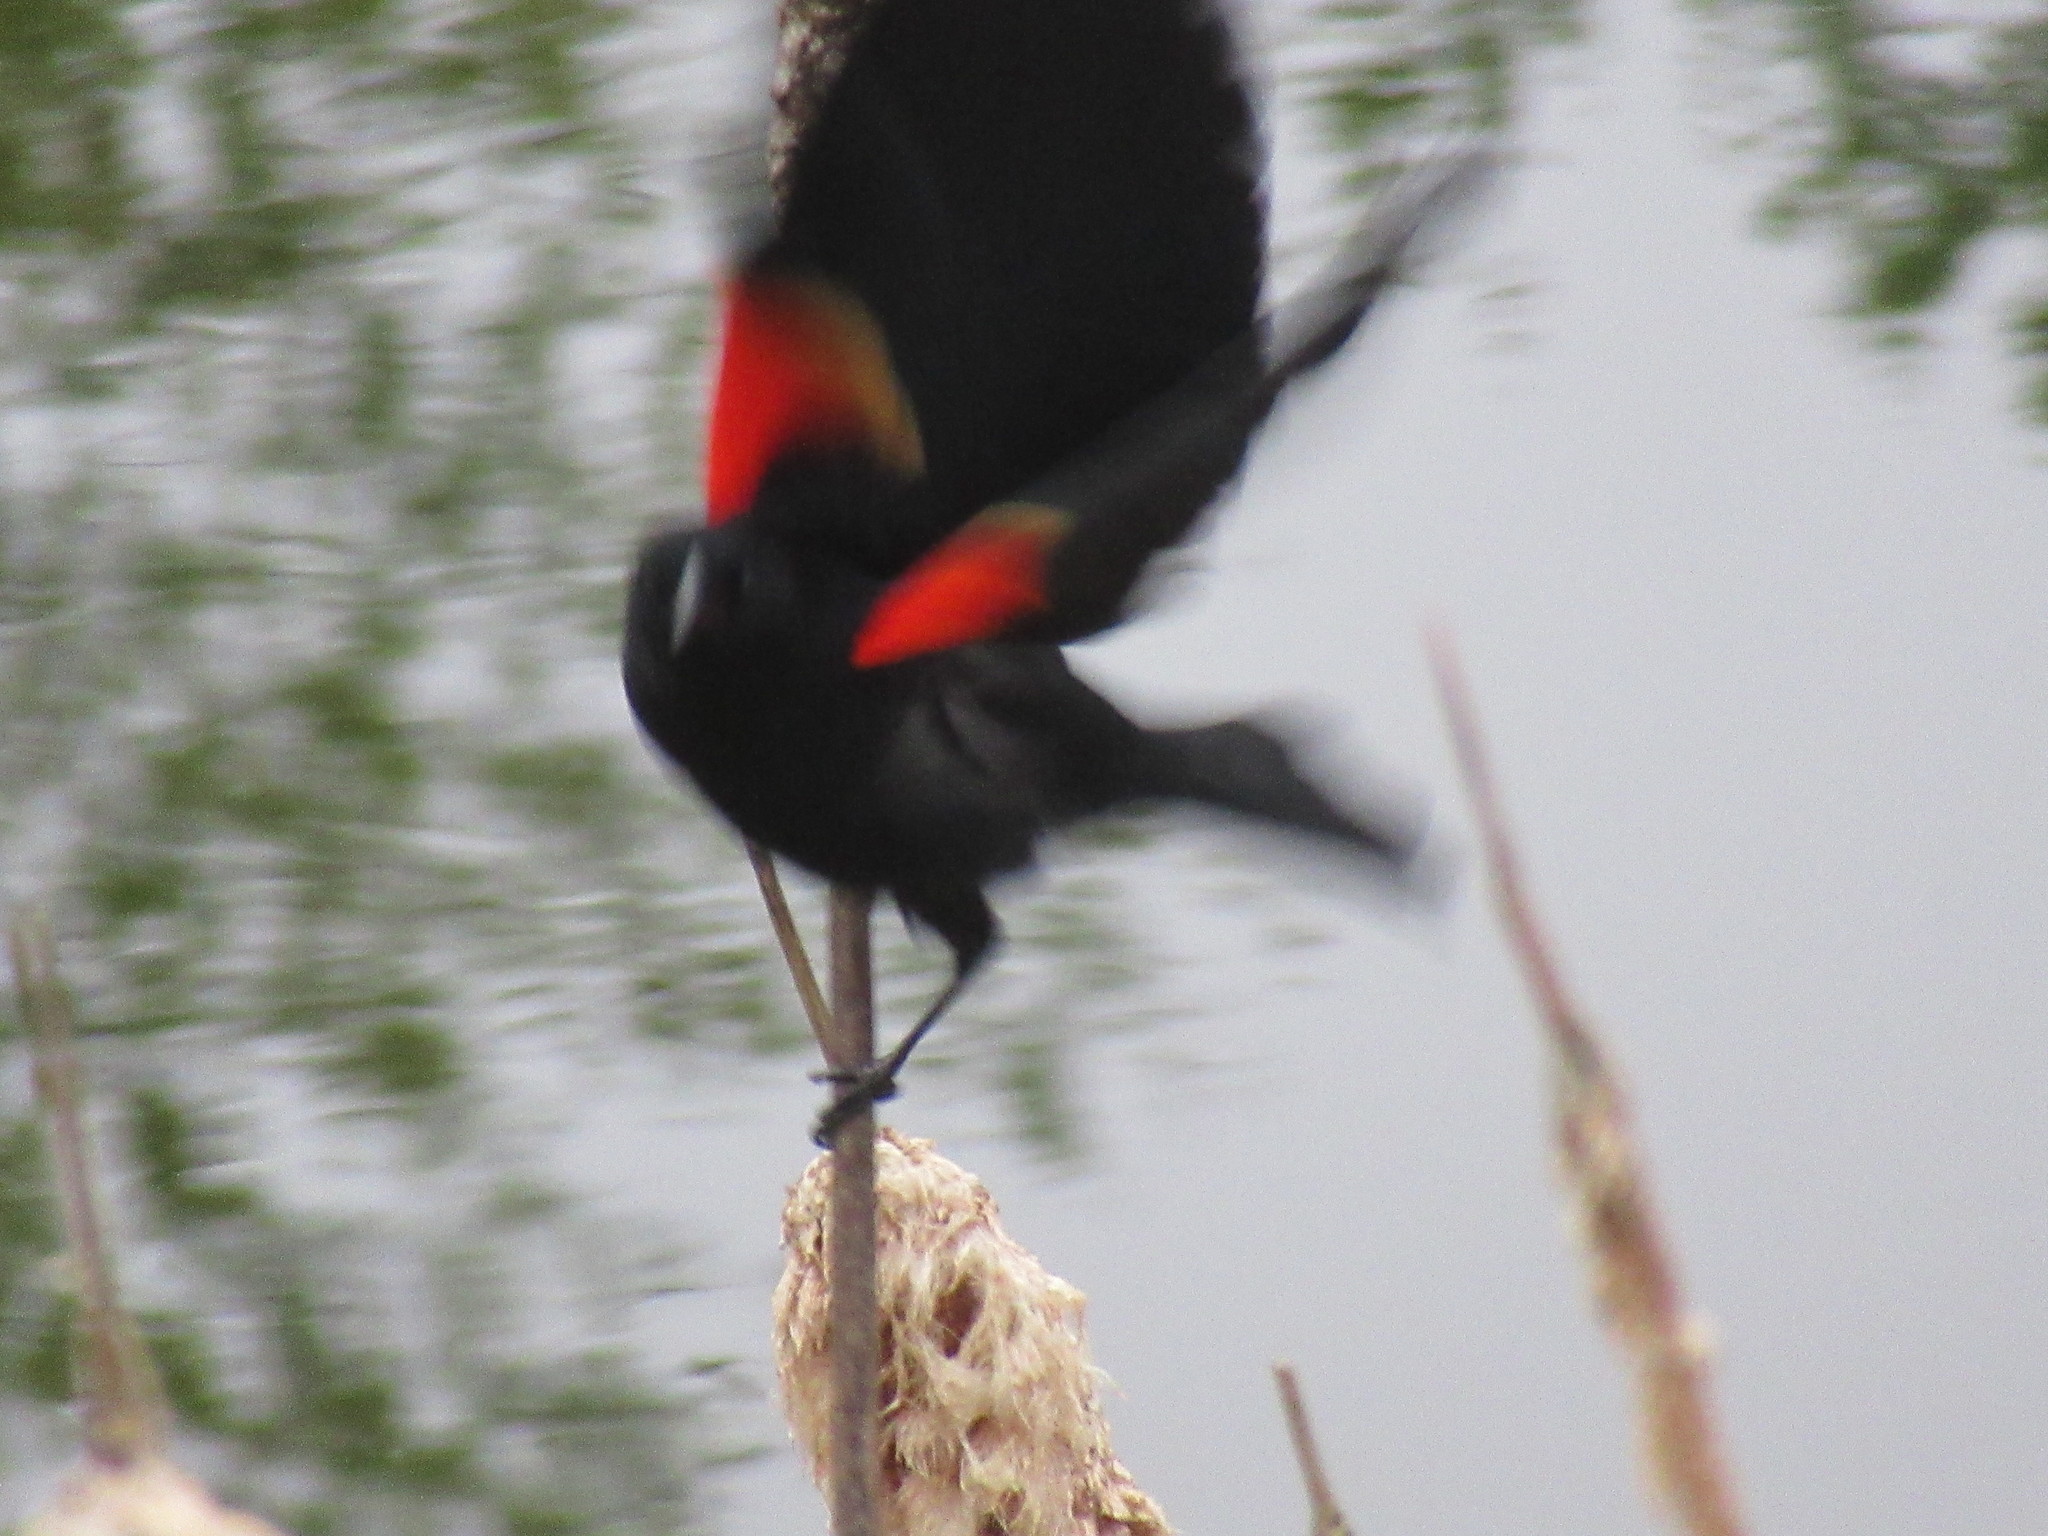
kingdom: Animalia
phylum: Chordata
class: Aves
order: Passeriformes
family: Icteridae
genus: Agelaius
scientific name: Agelaius phoeniceus
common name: Red-winged blackbird
